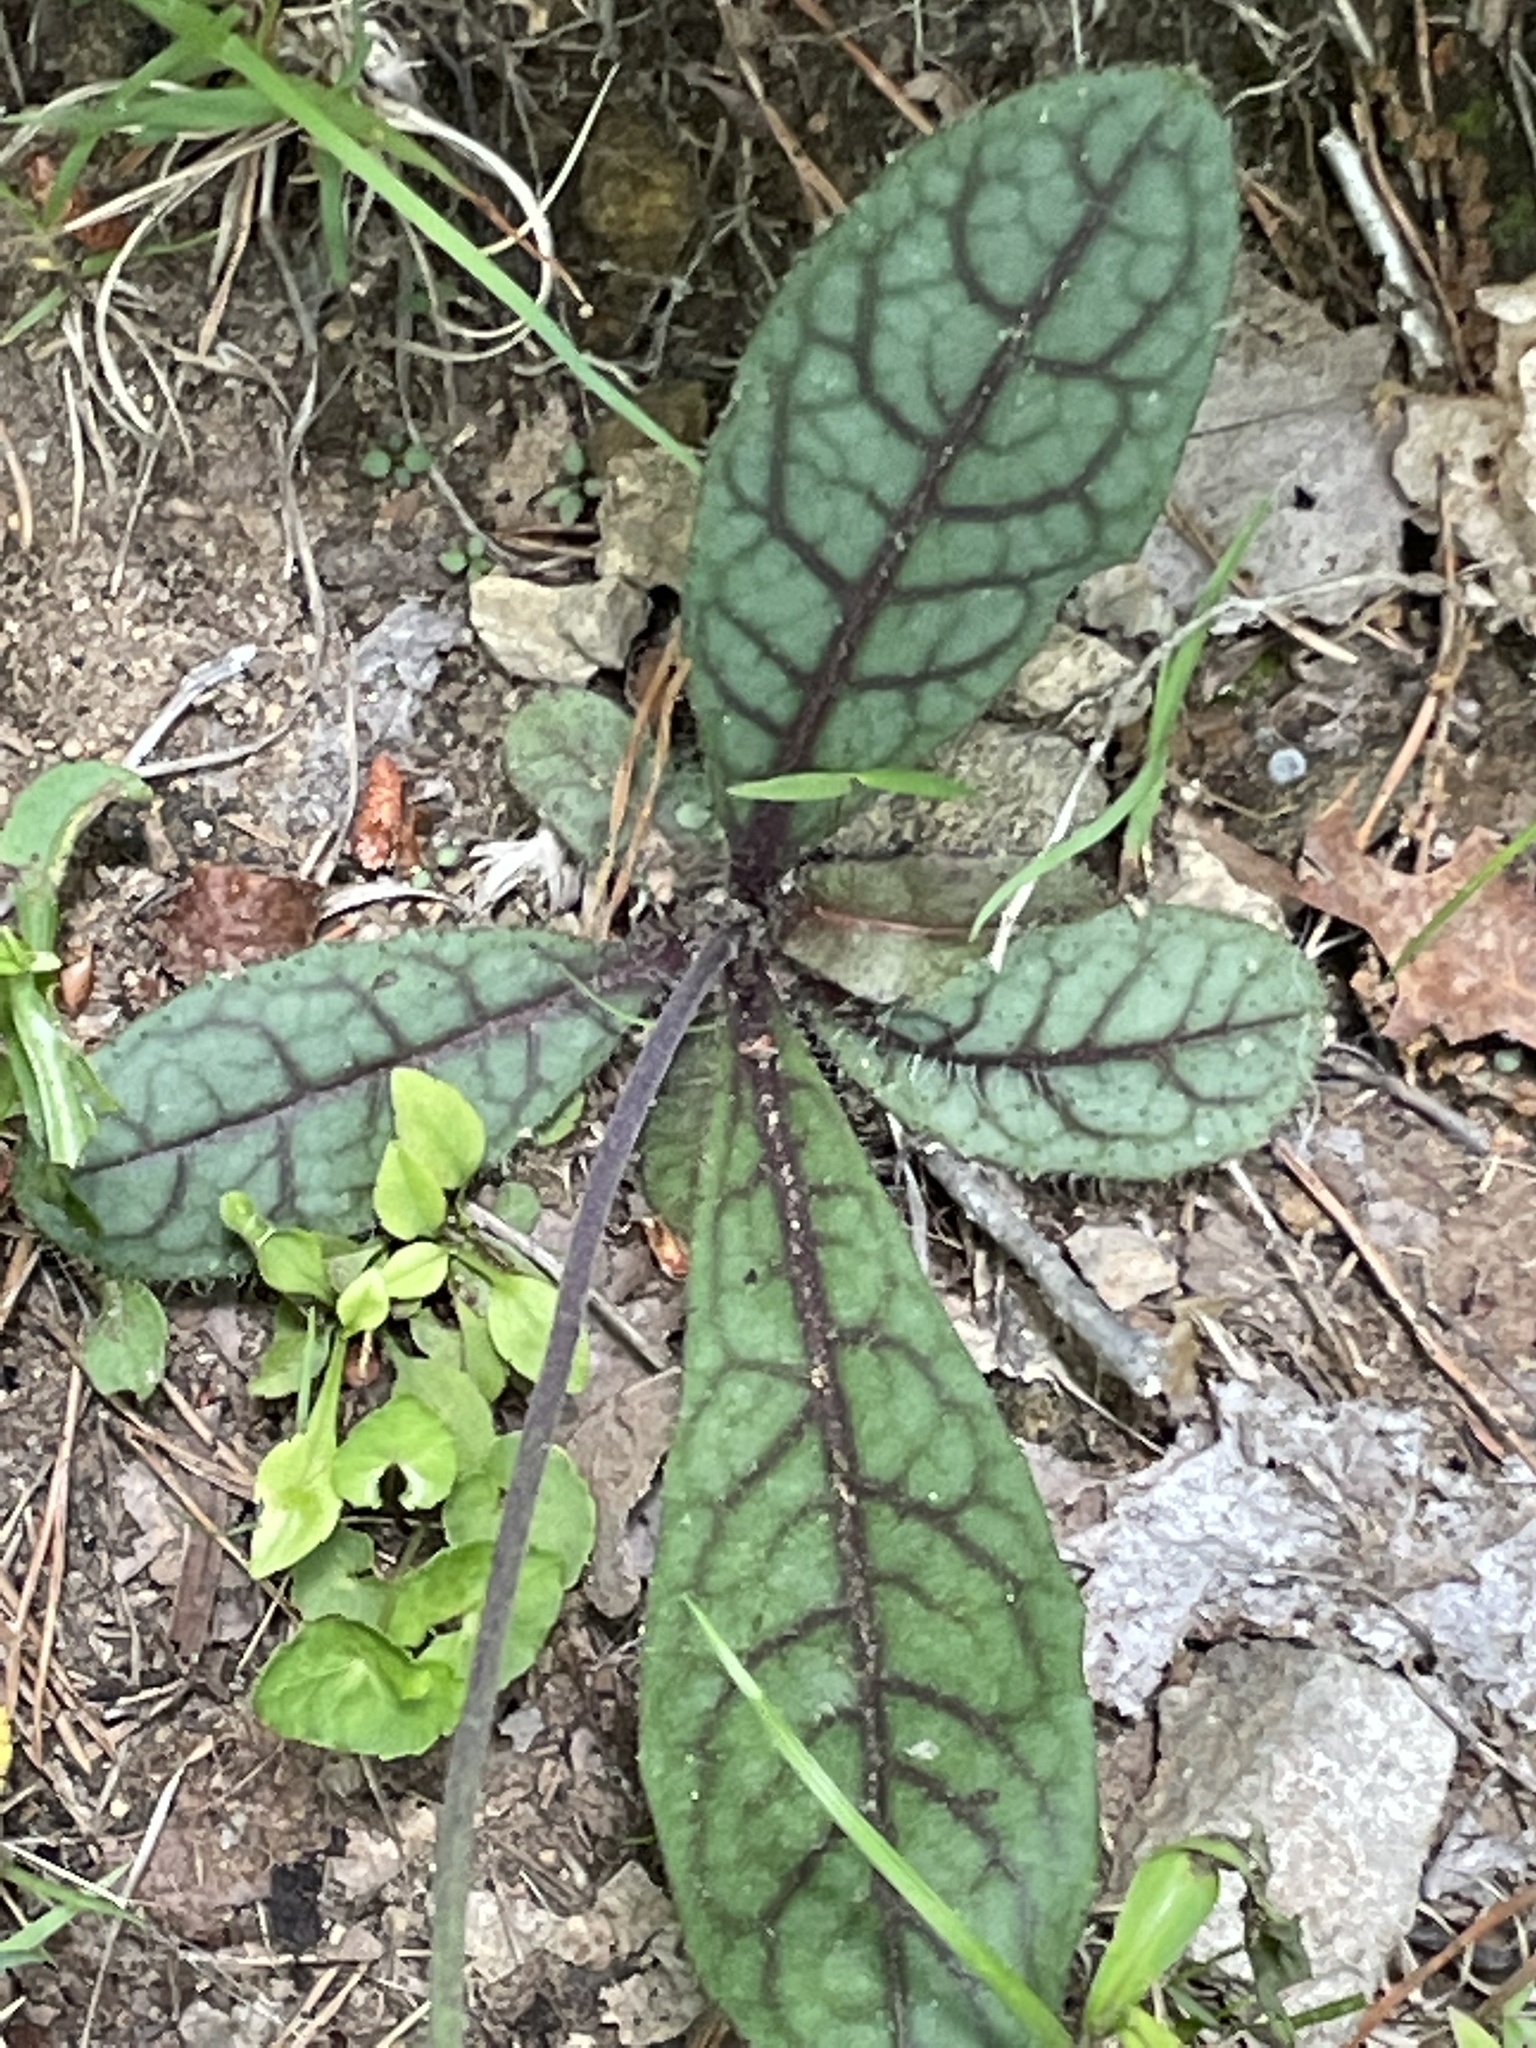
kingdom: Plantae
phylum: Tracheophyta
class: Magnoliopsida
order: Asterales
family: Asteraceae
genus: Hieracium
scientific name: Hieracium venosum
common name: Rattlesnake hawkweed
